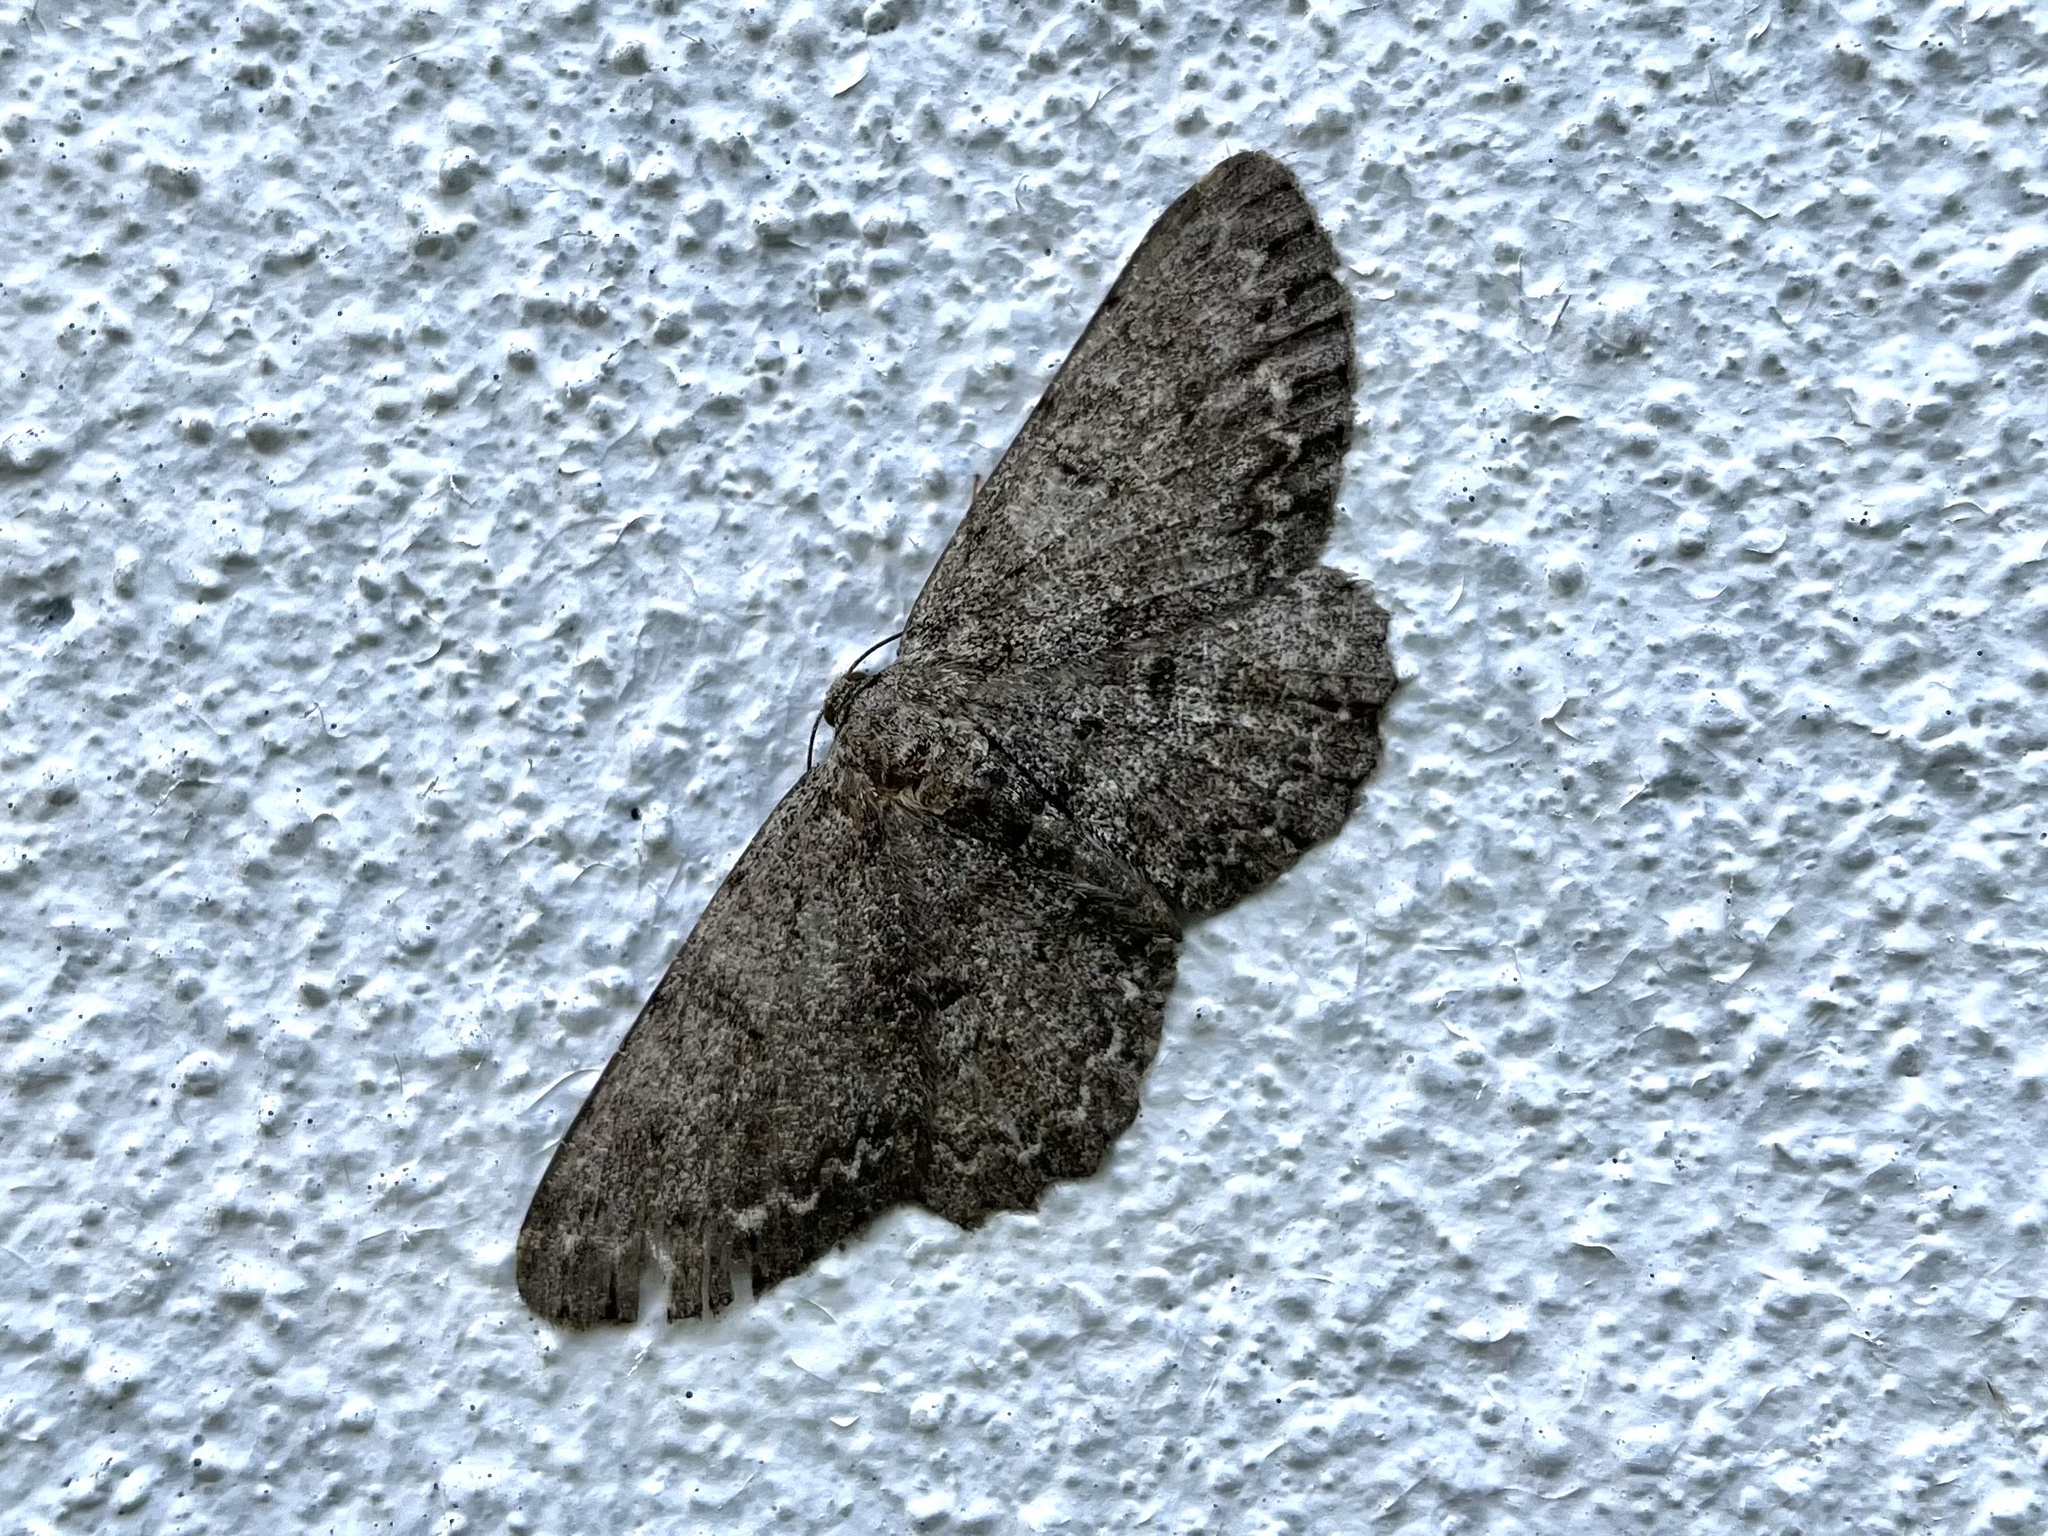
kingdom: Animalia
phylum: Arthropoda
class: Insecta
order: Lepidoptera
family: Geometridae
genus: Hypomecis
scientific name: Hypomecis punctinalis
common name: Pale oak beauty
